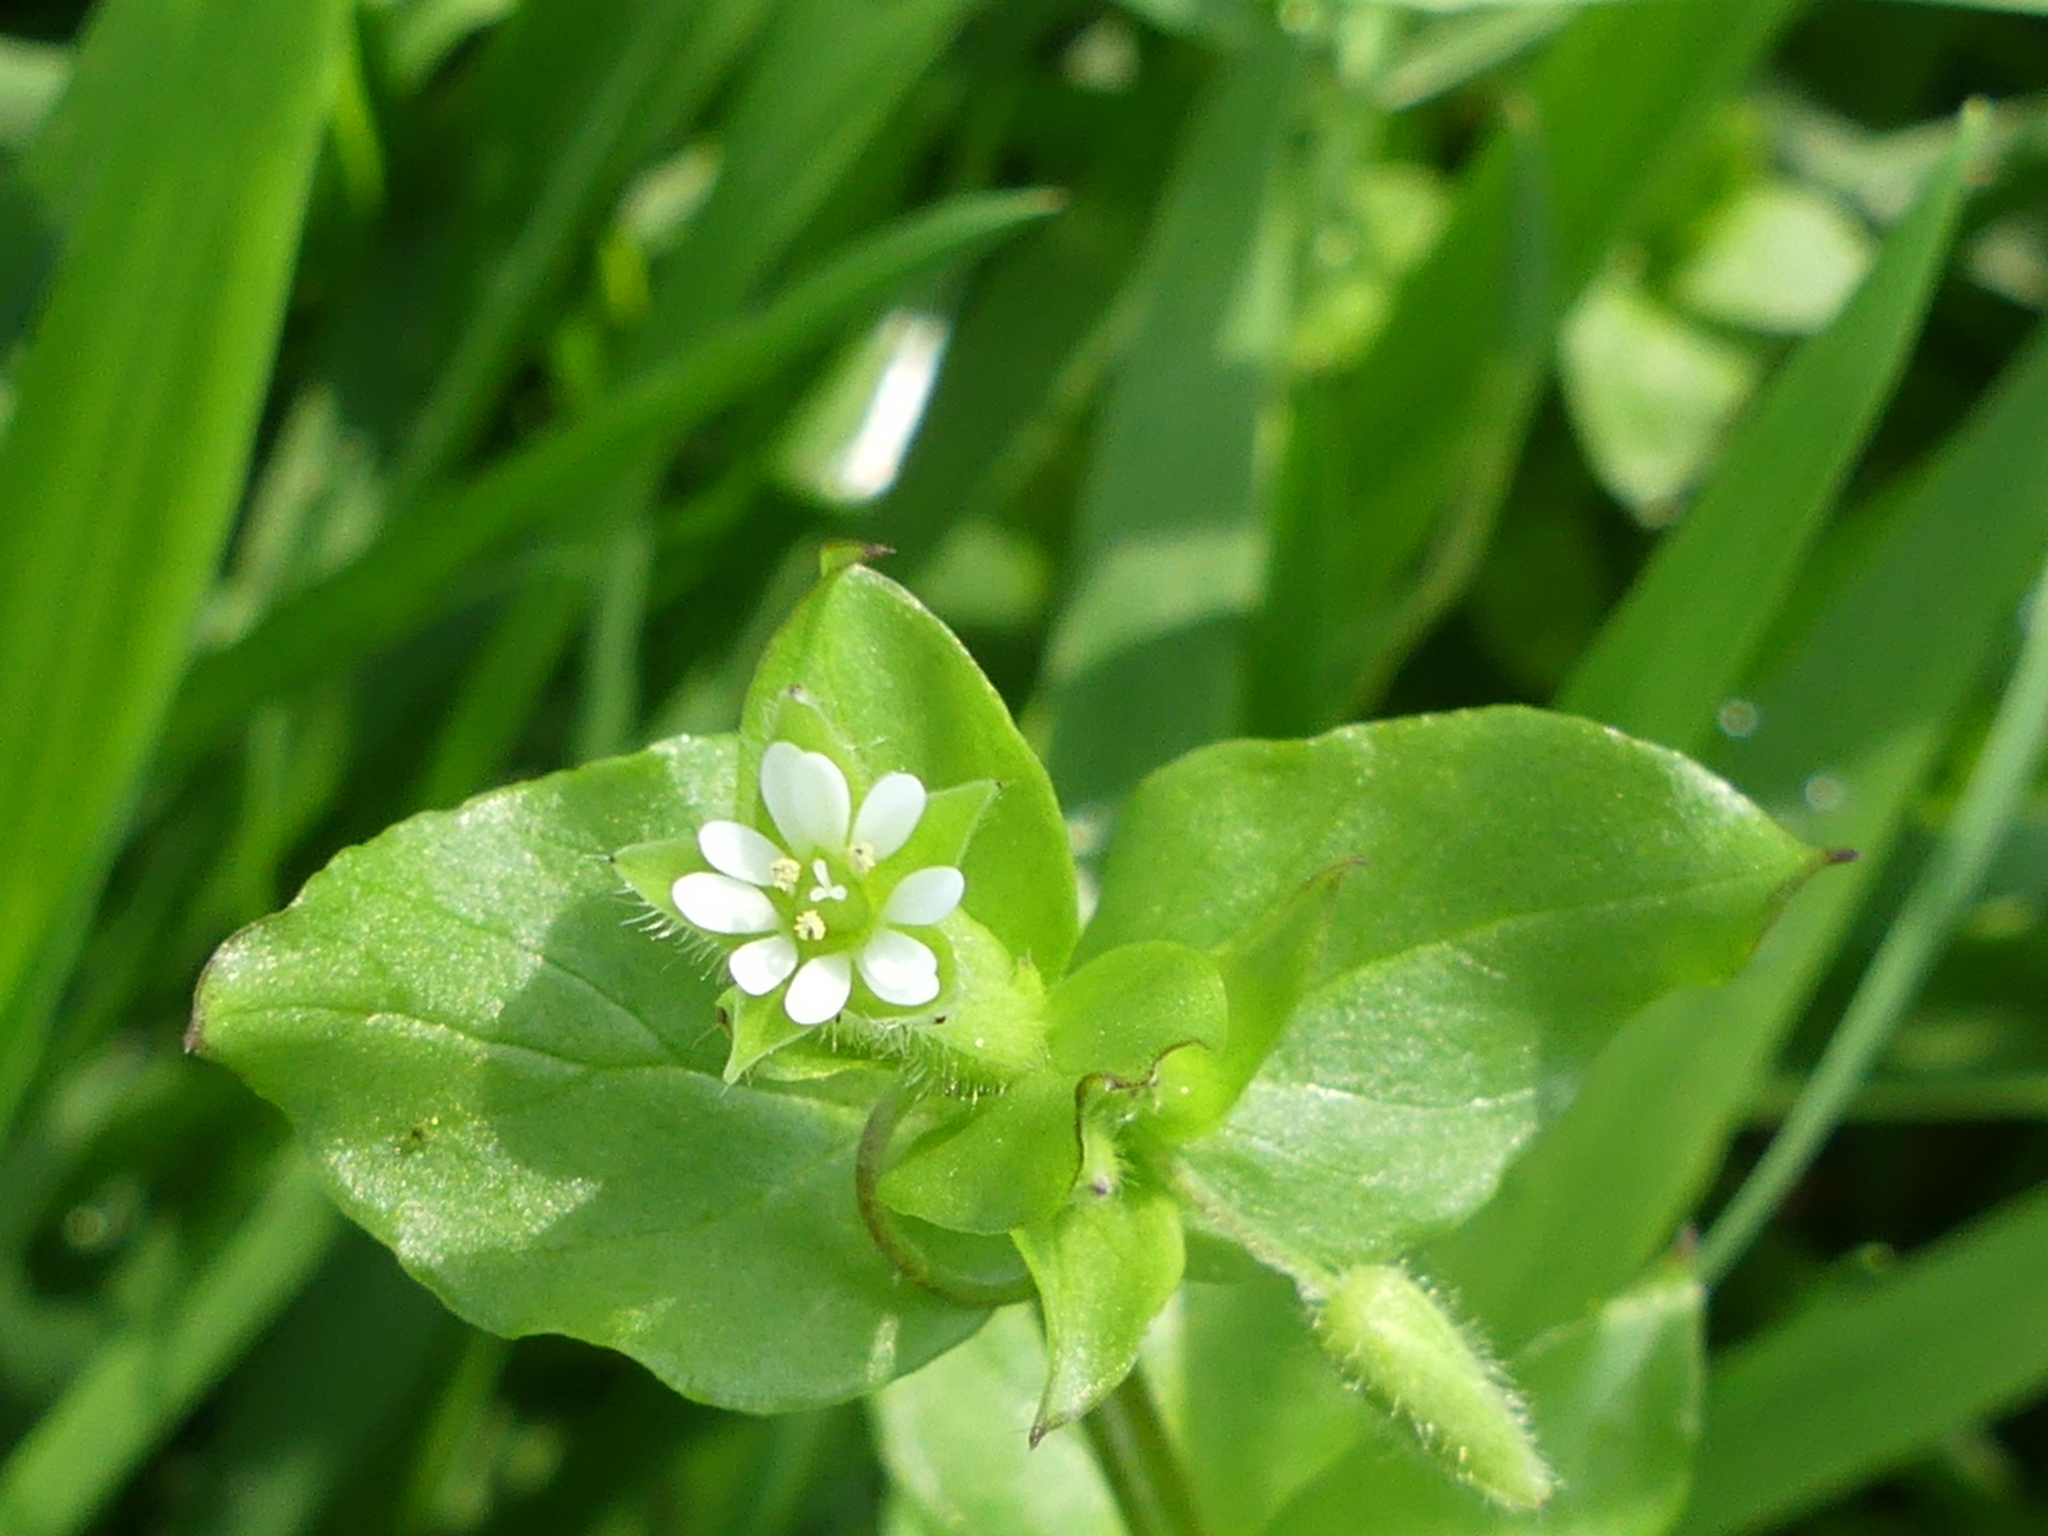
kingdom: Plantae
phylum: Tracheophyta
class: Magnoliopsida
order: Caryophyllales
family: Caryophyllaceae
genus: Stellaria
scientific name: Stellaria media
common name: Common chickweed
